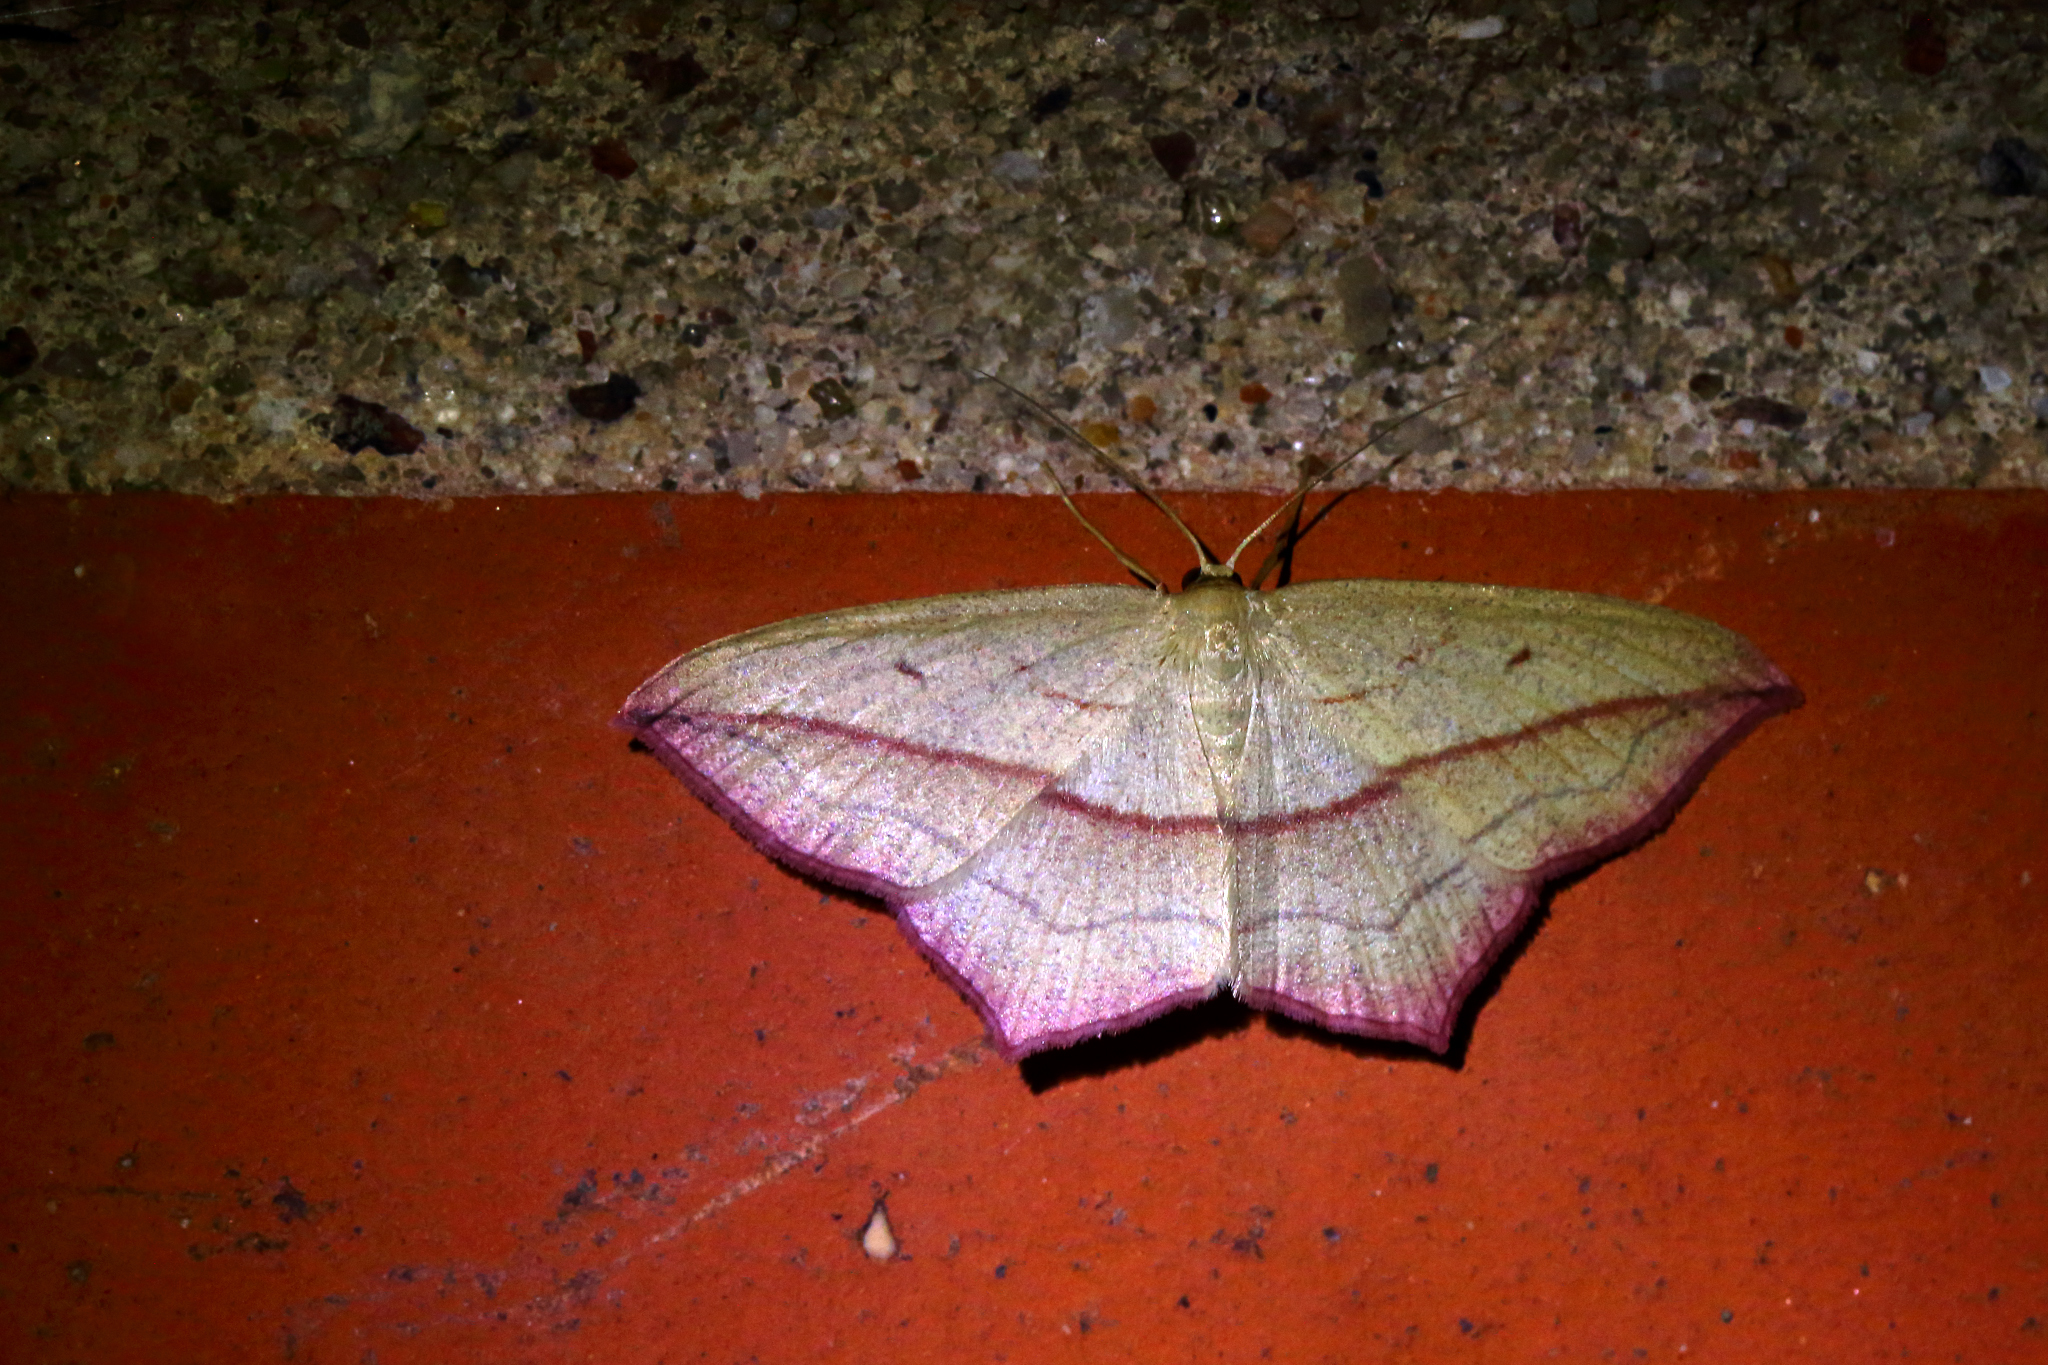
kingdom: Animalia
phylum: Arthropoda
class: Insecta
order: Lepidoptera
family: Geometridae
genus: Timandra
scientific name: Timandra comae
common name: Blood-vein
